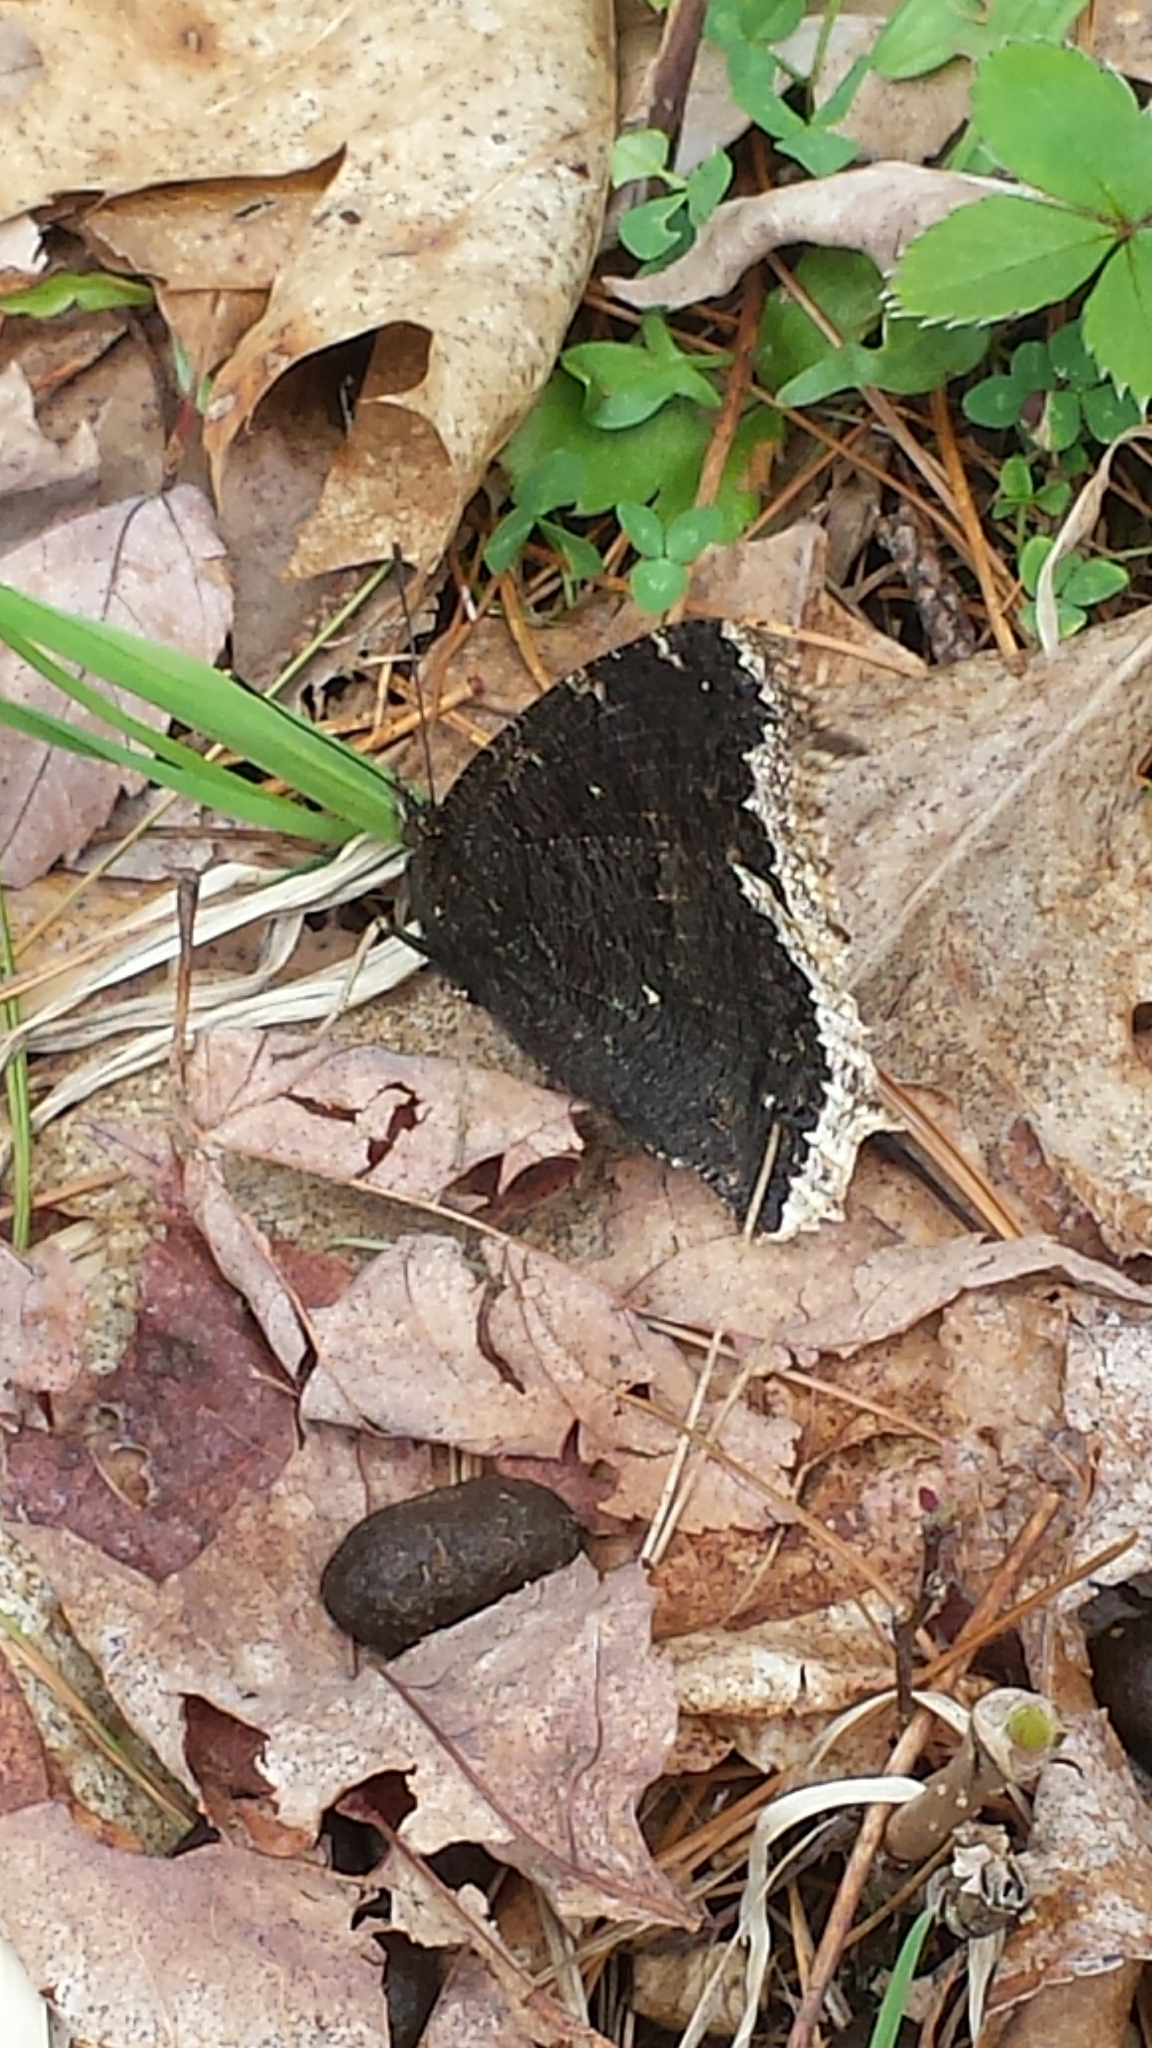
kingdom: Animalia
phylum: Arthropoda
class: Insecta
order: Lepidoptera
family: Nymphalidae
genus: Nymphalis
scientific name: Nymphalis antiopa
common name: Camberwell beauty
